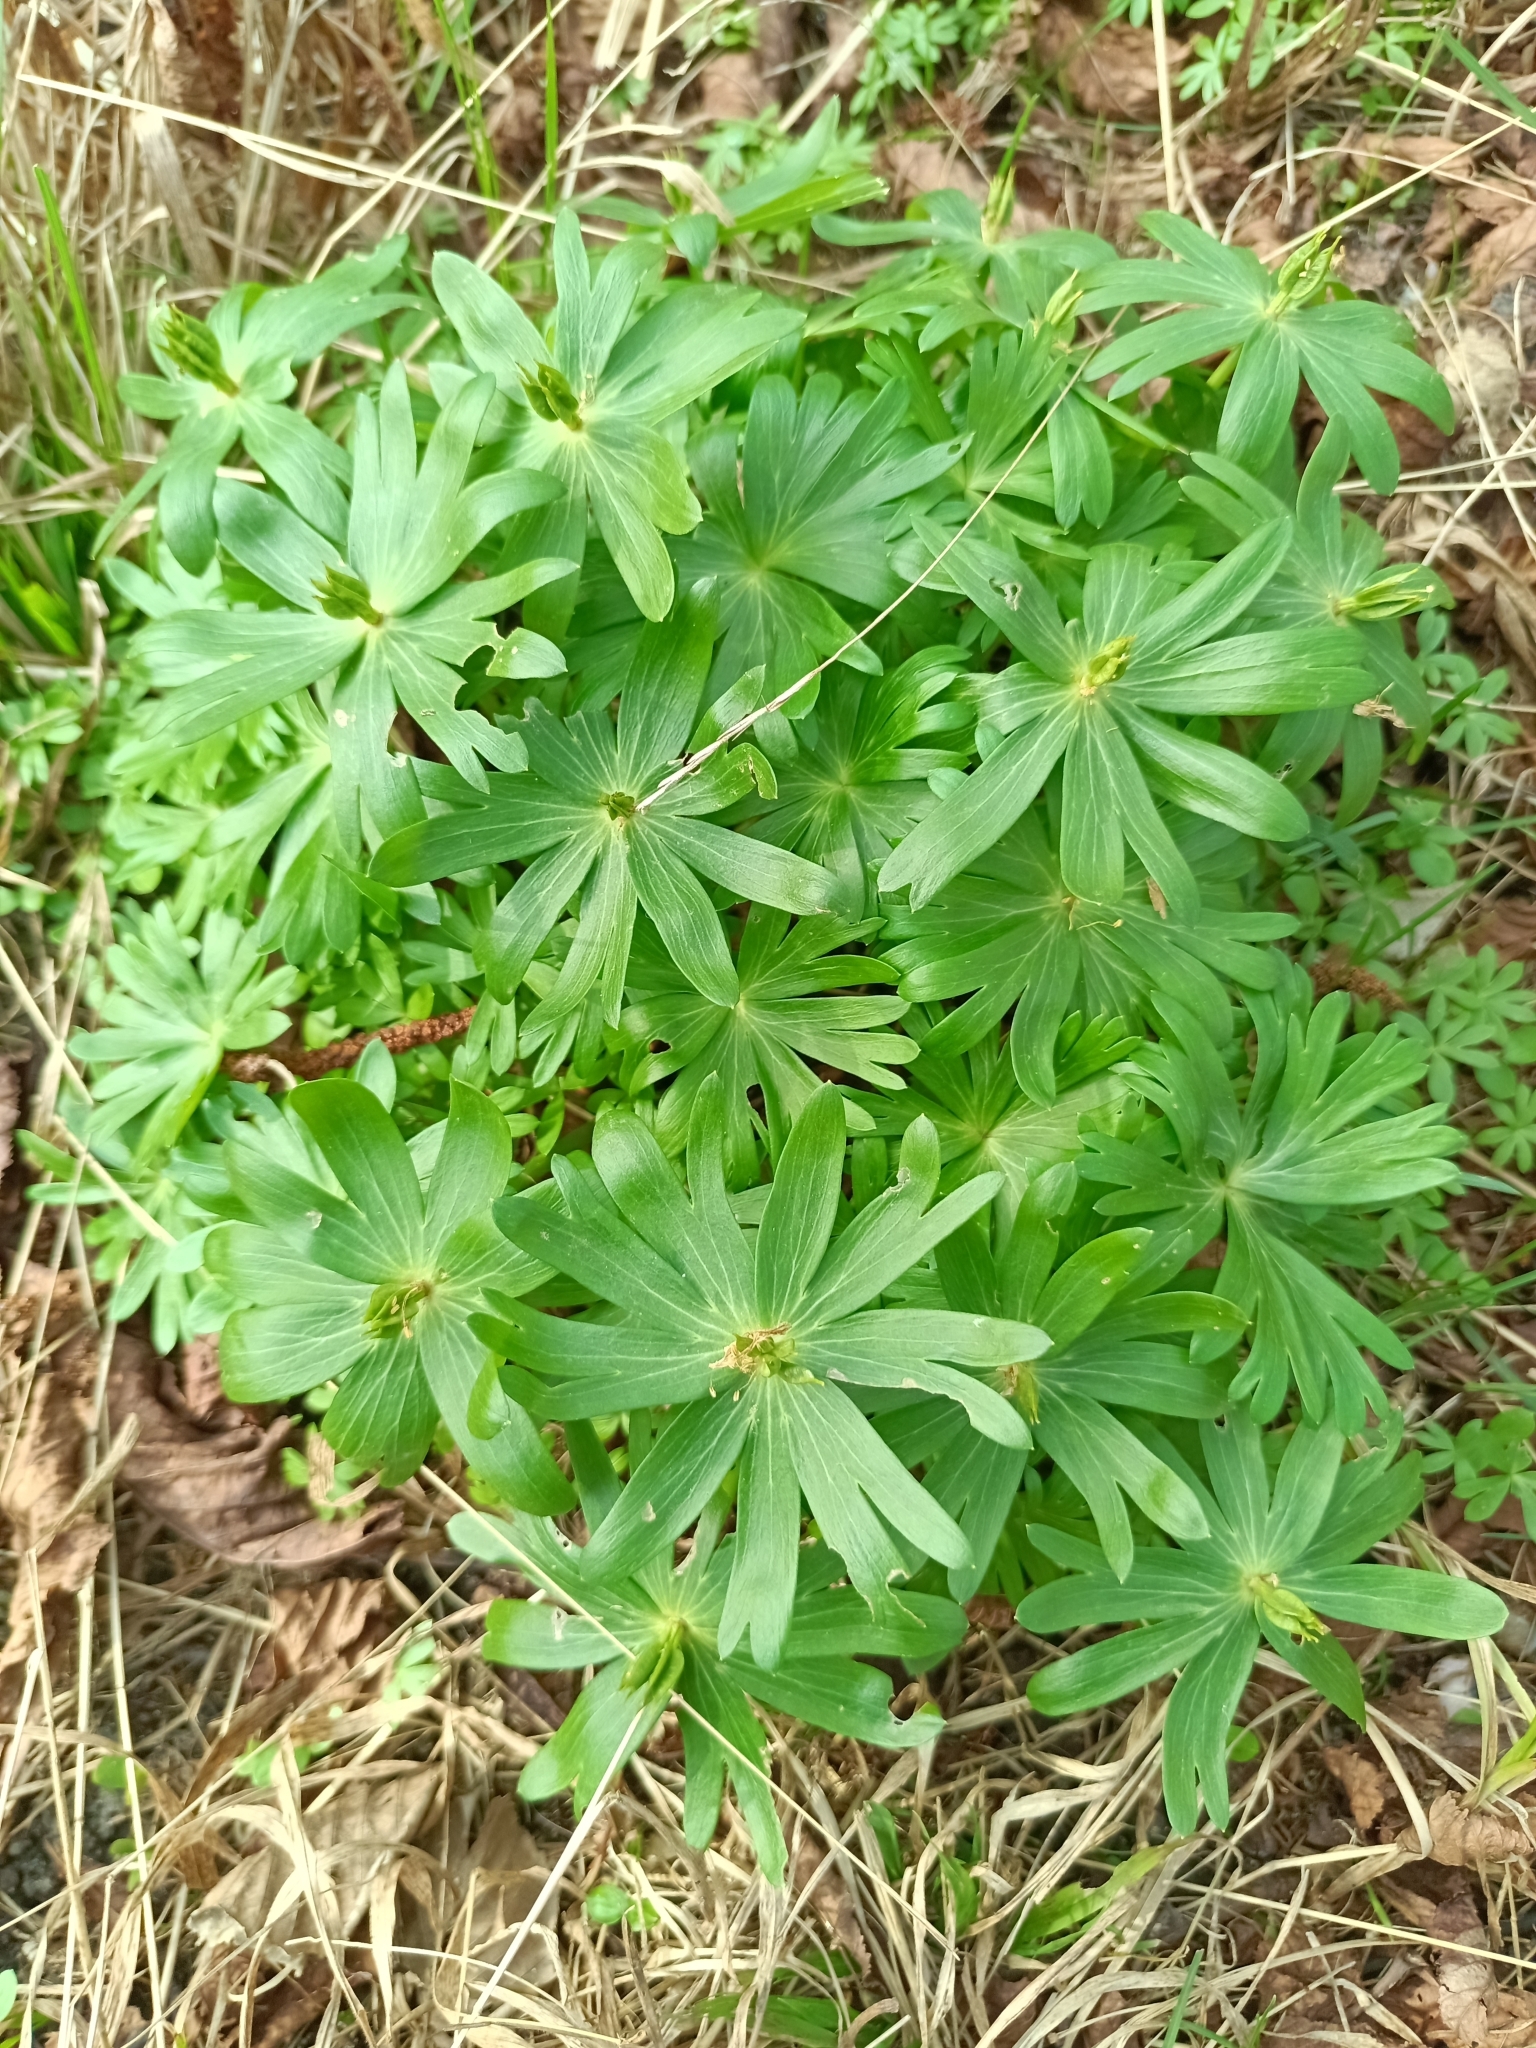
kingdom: Plantae
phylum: Tracheophyta
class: Magnoliopsida
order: Ranunculales
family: Ranunculaceae
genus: Eranthis
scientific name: Eranthis hyemalis
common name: Winter aconite
